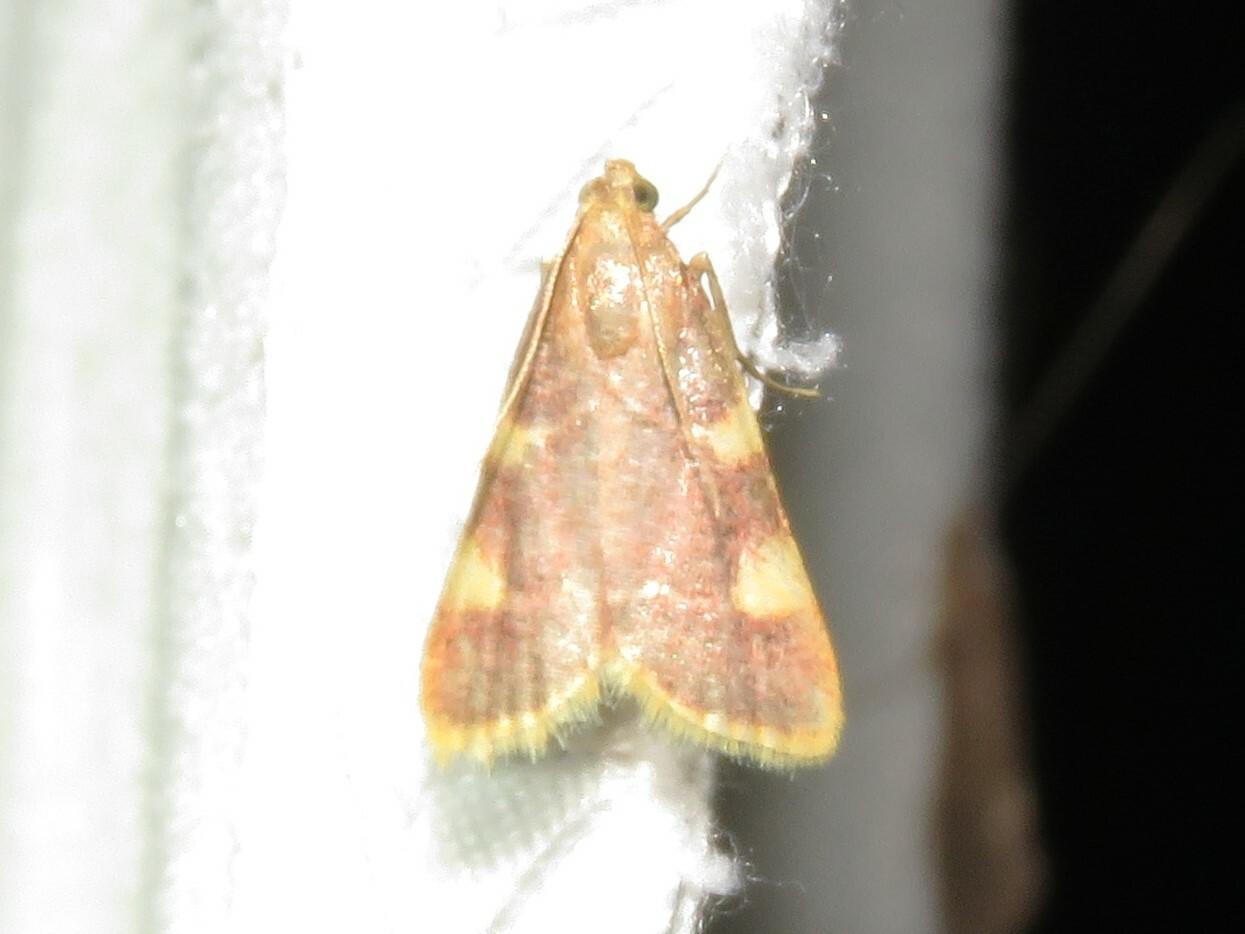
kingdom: Animalia
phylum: Arthropoda
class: Insecta
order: Lepidoptera
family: Pyralidae
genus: Hypsopygia
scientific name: Hypsopygia costalis
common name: Gold triangle
